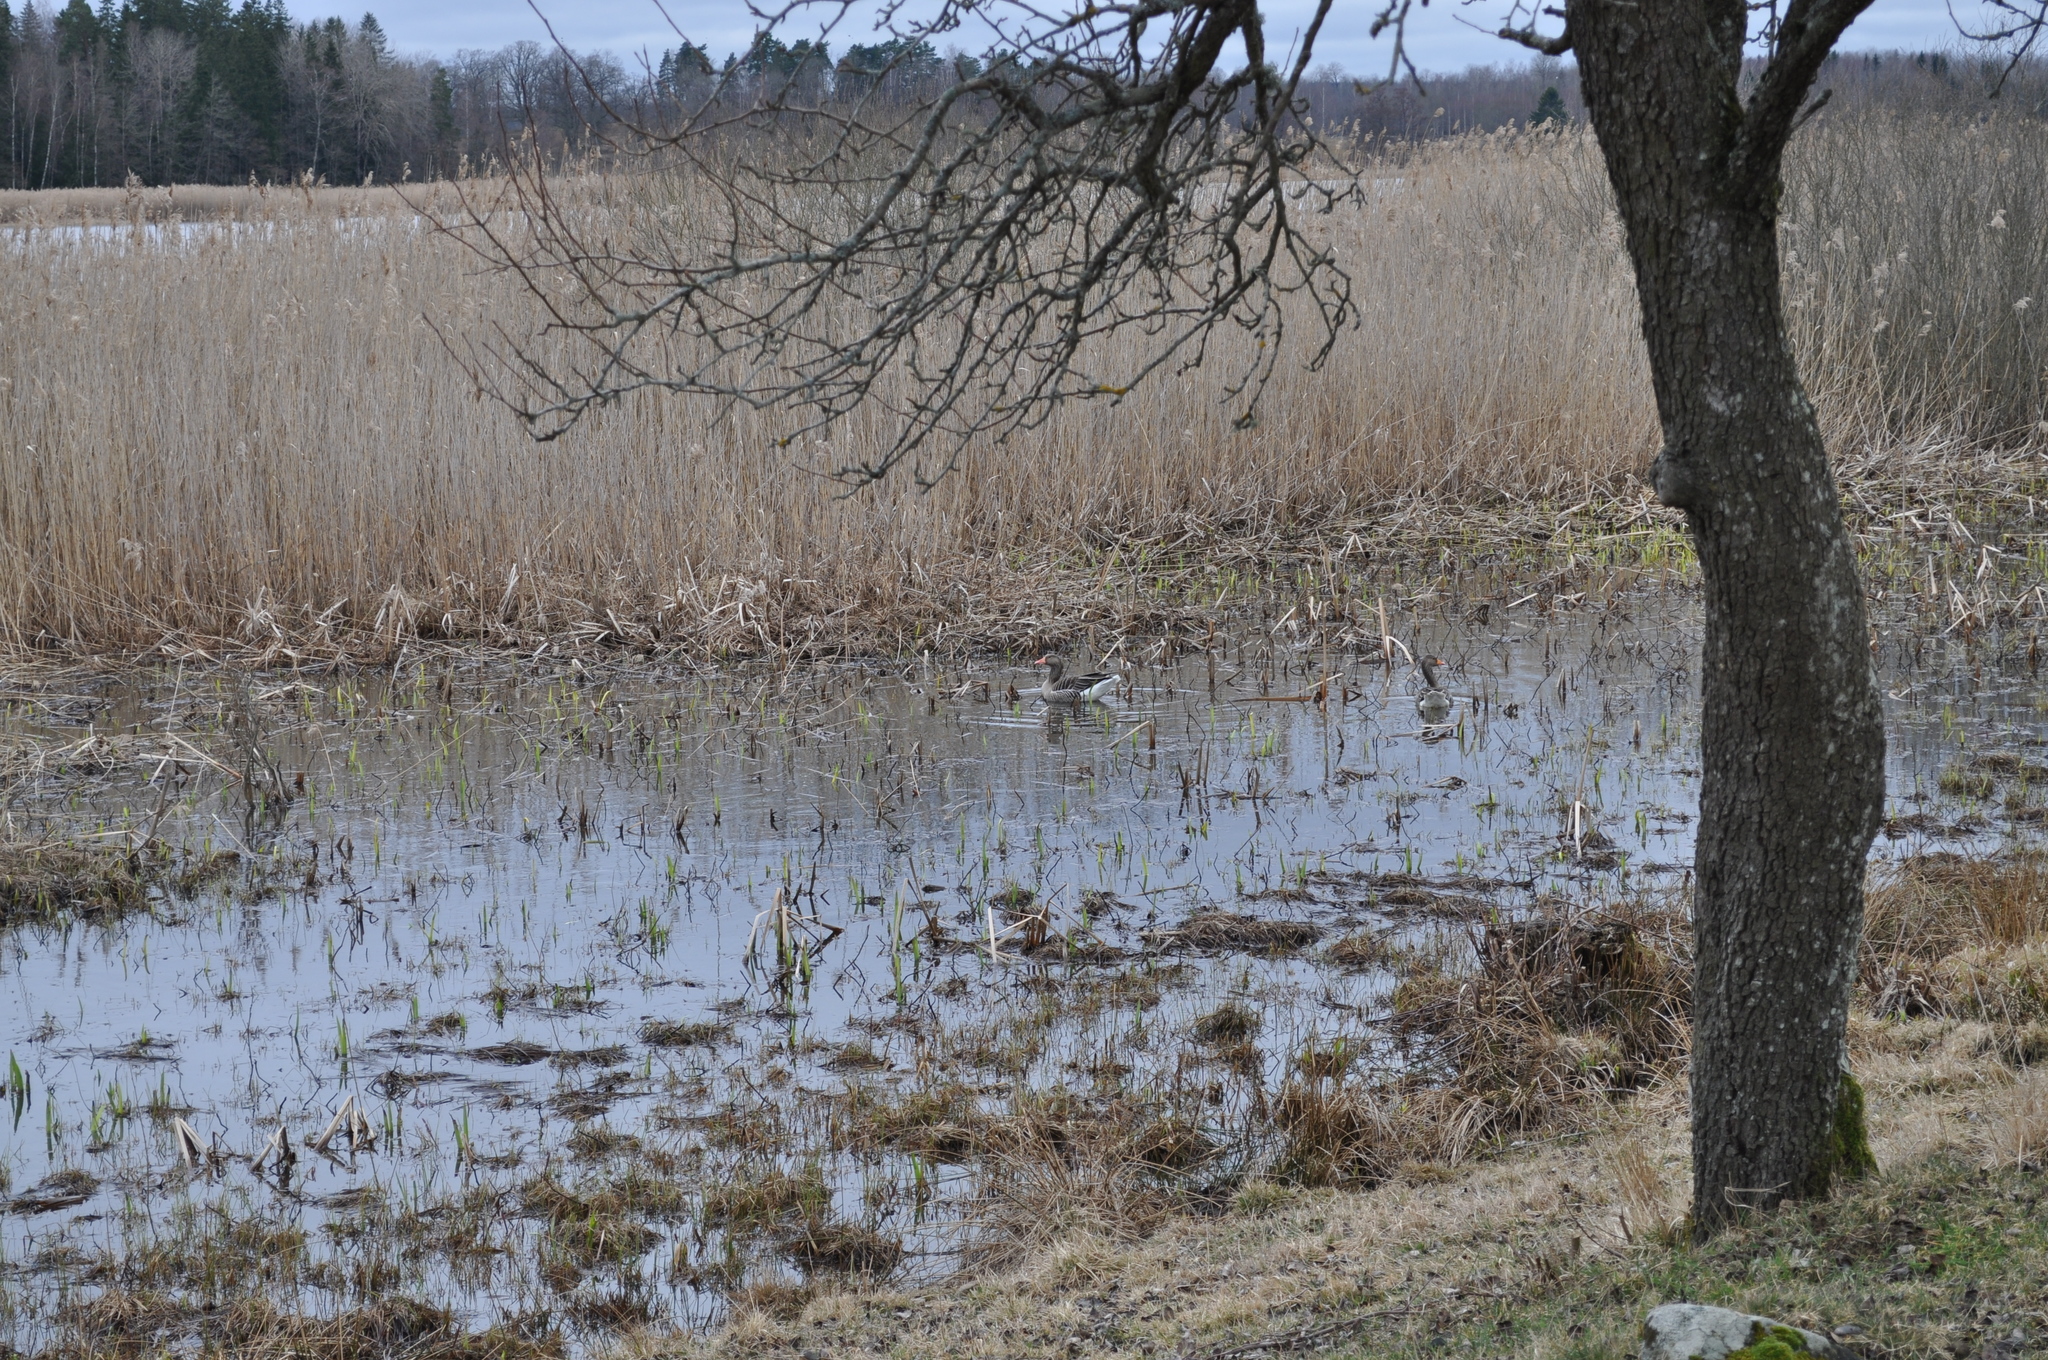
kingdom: Animalia
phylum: Chordata
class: Aves
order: Anseriformes
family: Anatidae
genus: Anser
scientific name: Anser anser
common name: Greylag goose
